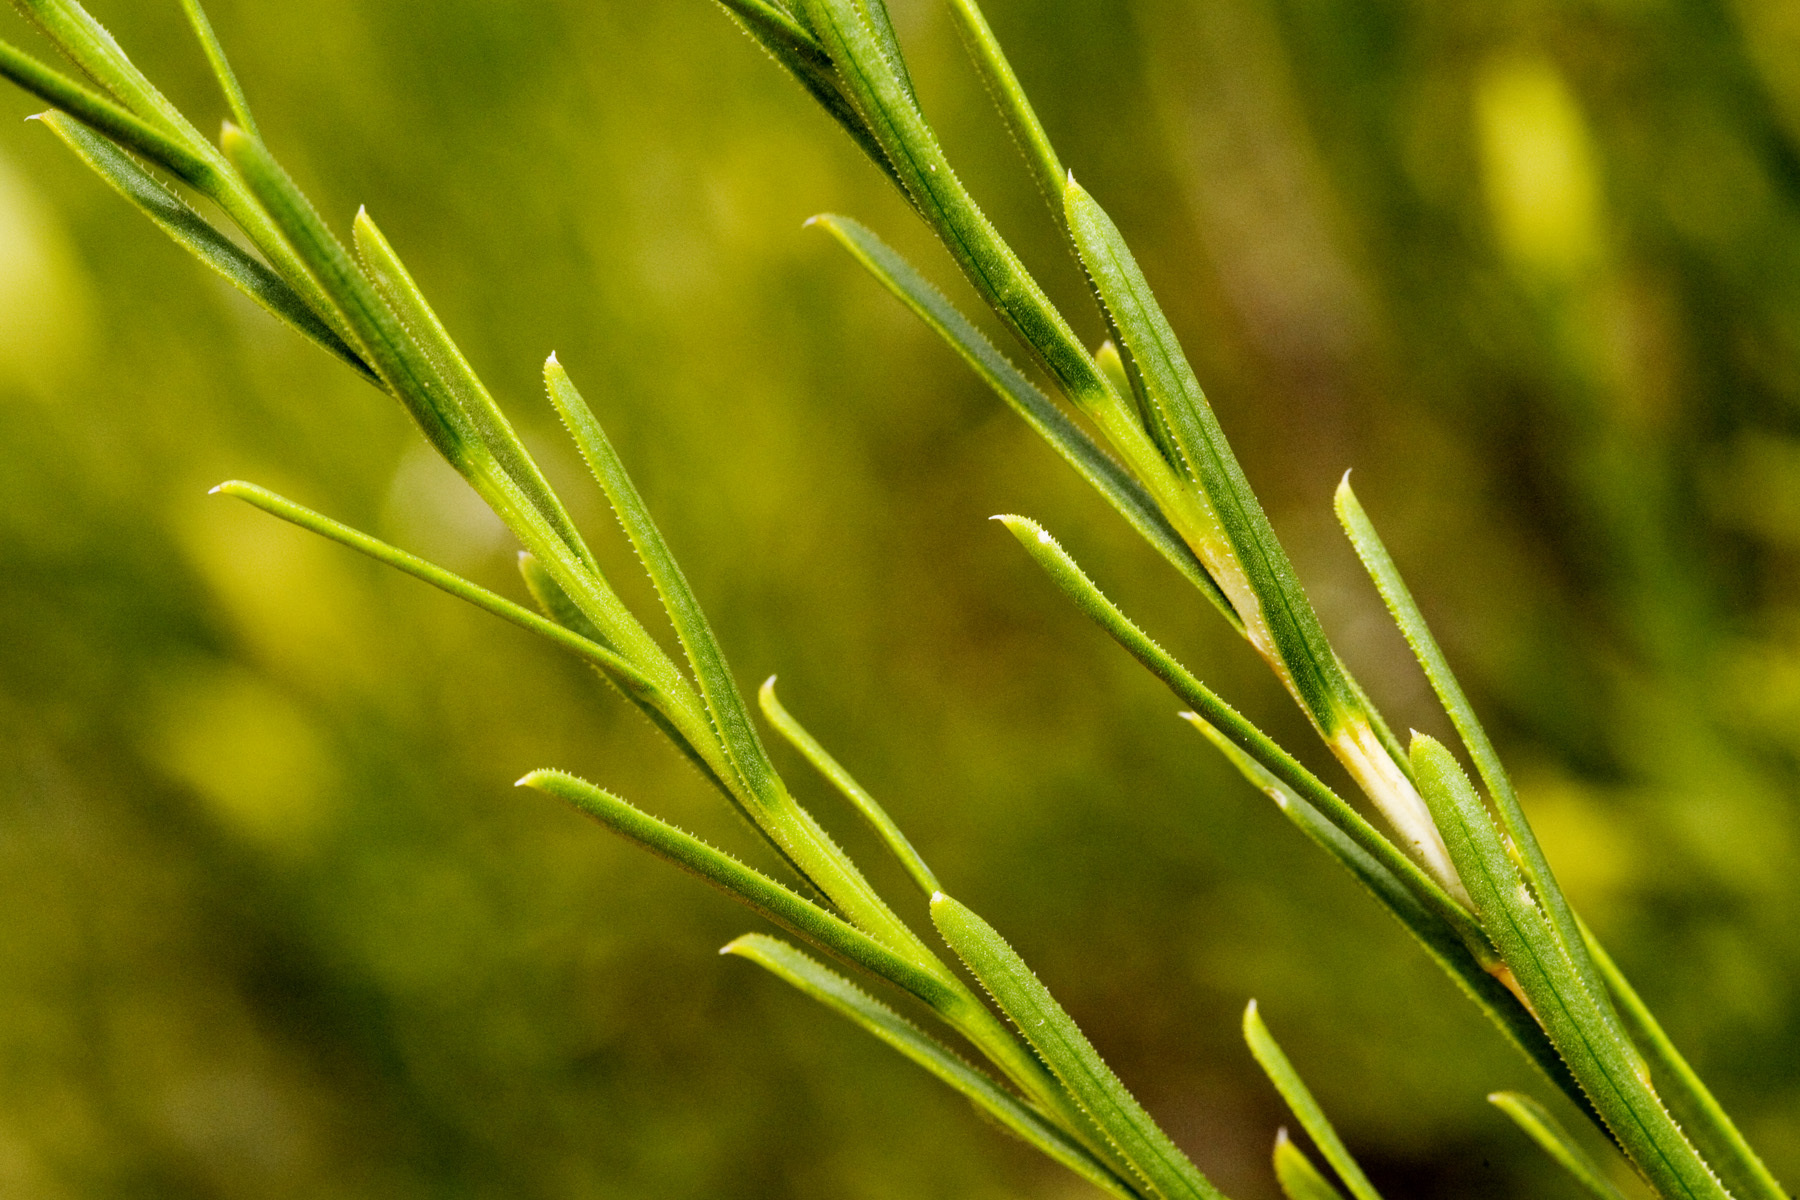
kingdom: Plantae
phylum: Tracheophyta
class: Magnoliopsida
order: Asterales
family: Asteraceae
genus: Lorandersonia
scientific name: Lorandersonia baileyi
